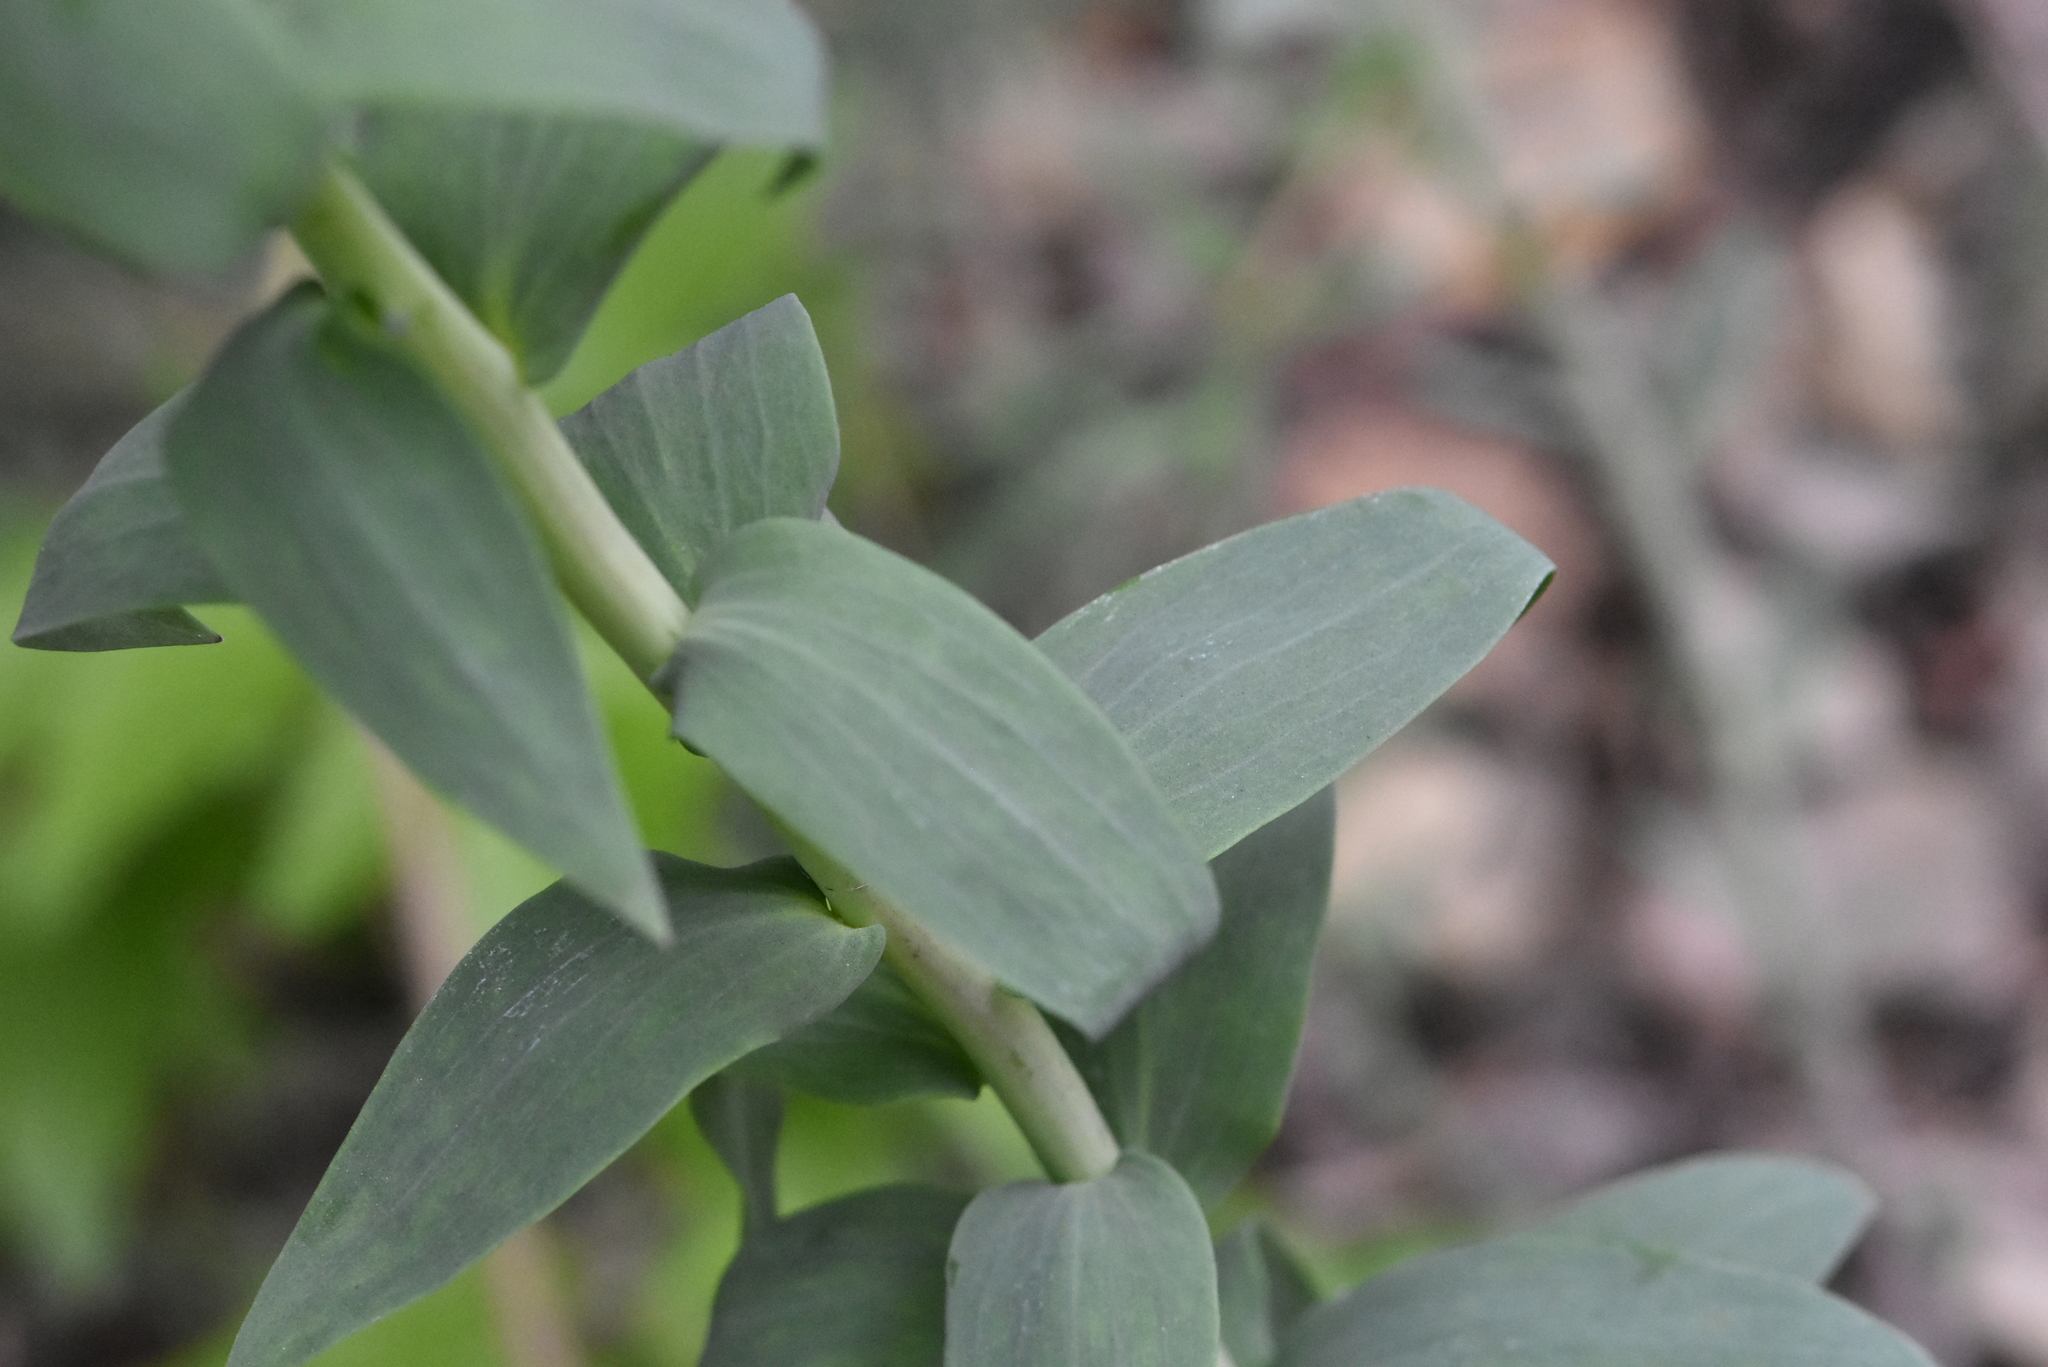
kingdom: Plantae
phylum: Tracheophyta
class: Magnoliopsida
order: Lamiales
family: Plantaginaceae
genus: Linaria
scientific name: Linaria genistifolia
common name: Broomleaf toadflax
